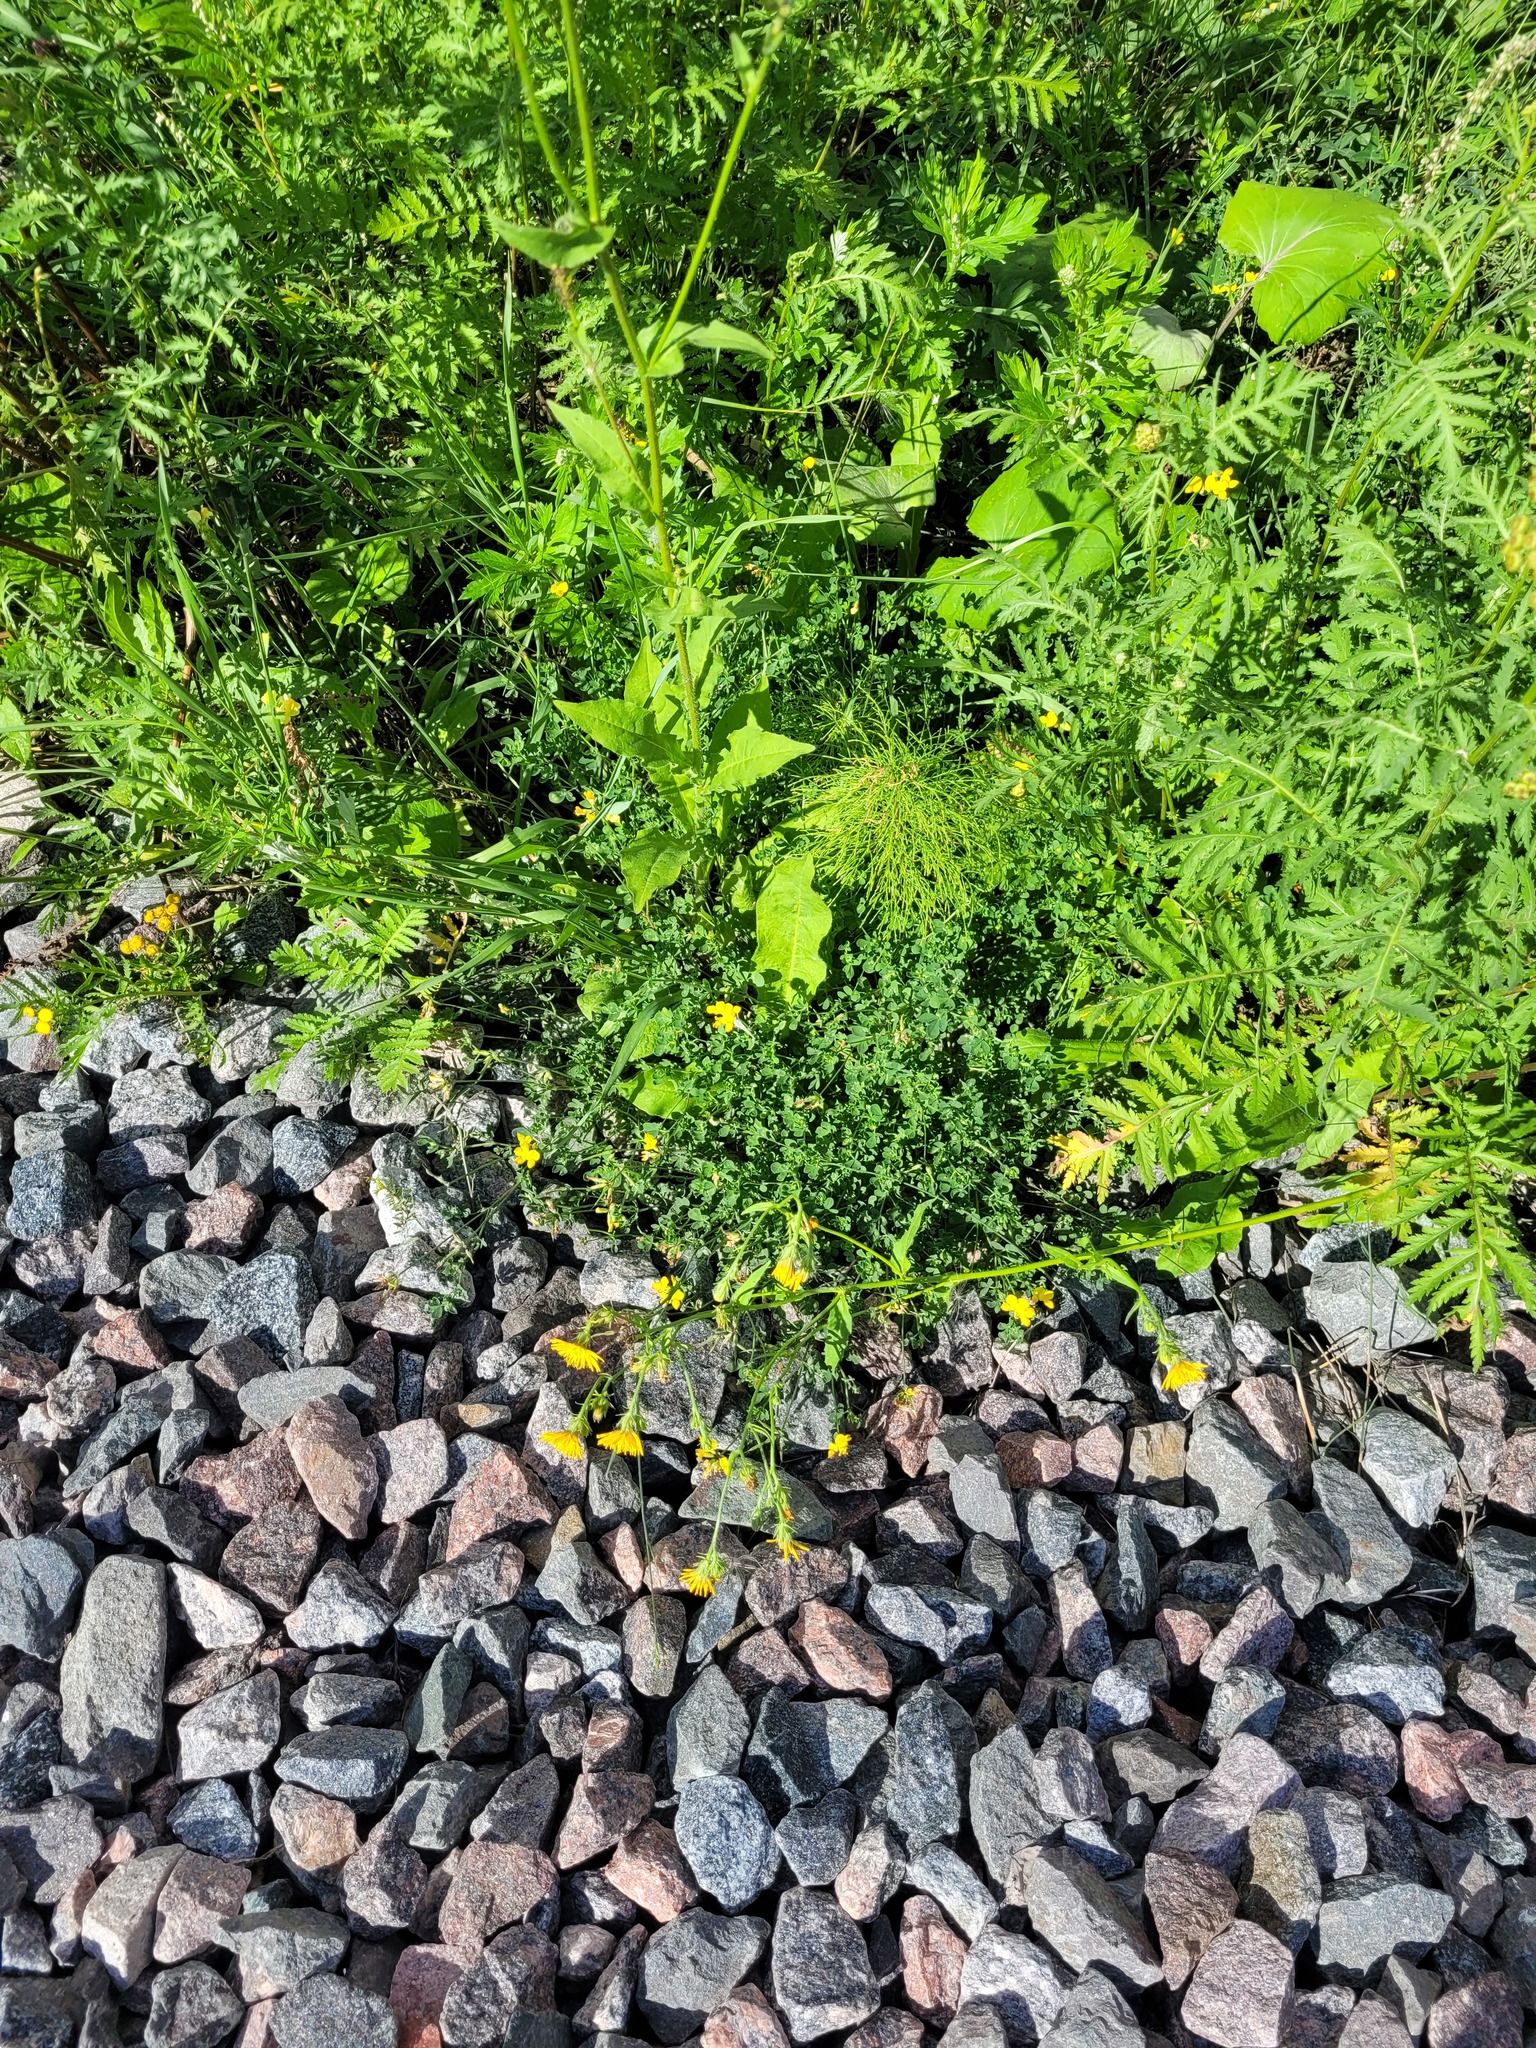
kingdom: Plantae
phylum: Tracheophyta
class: Magnoliopsida
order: Fabales
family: Fabaceae
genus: Lotus
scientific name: Lotus corniculatus
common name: Common bird's-foot-trefoil
